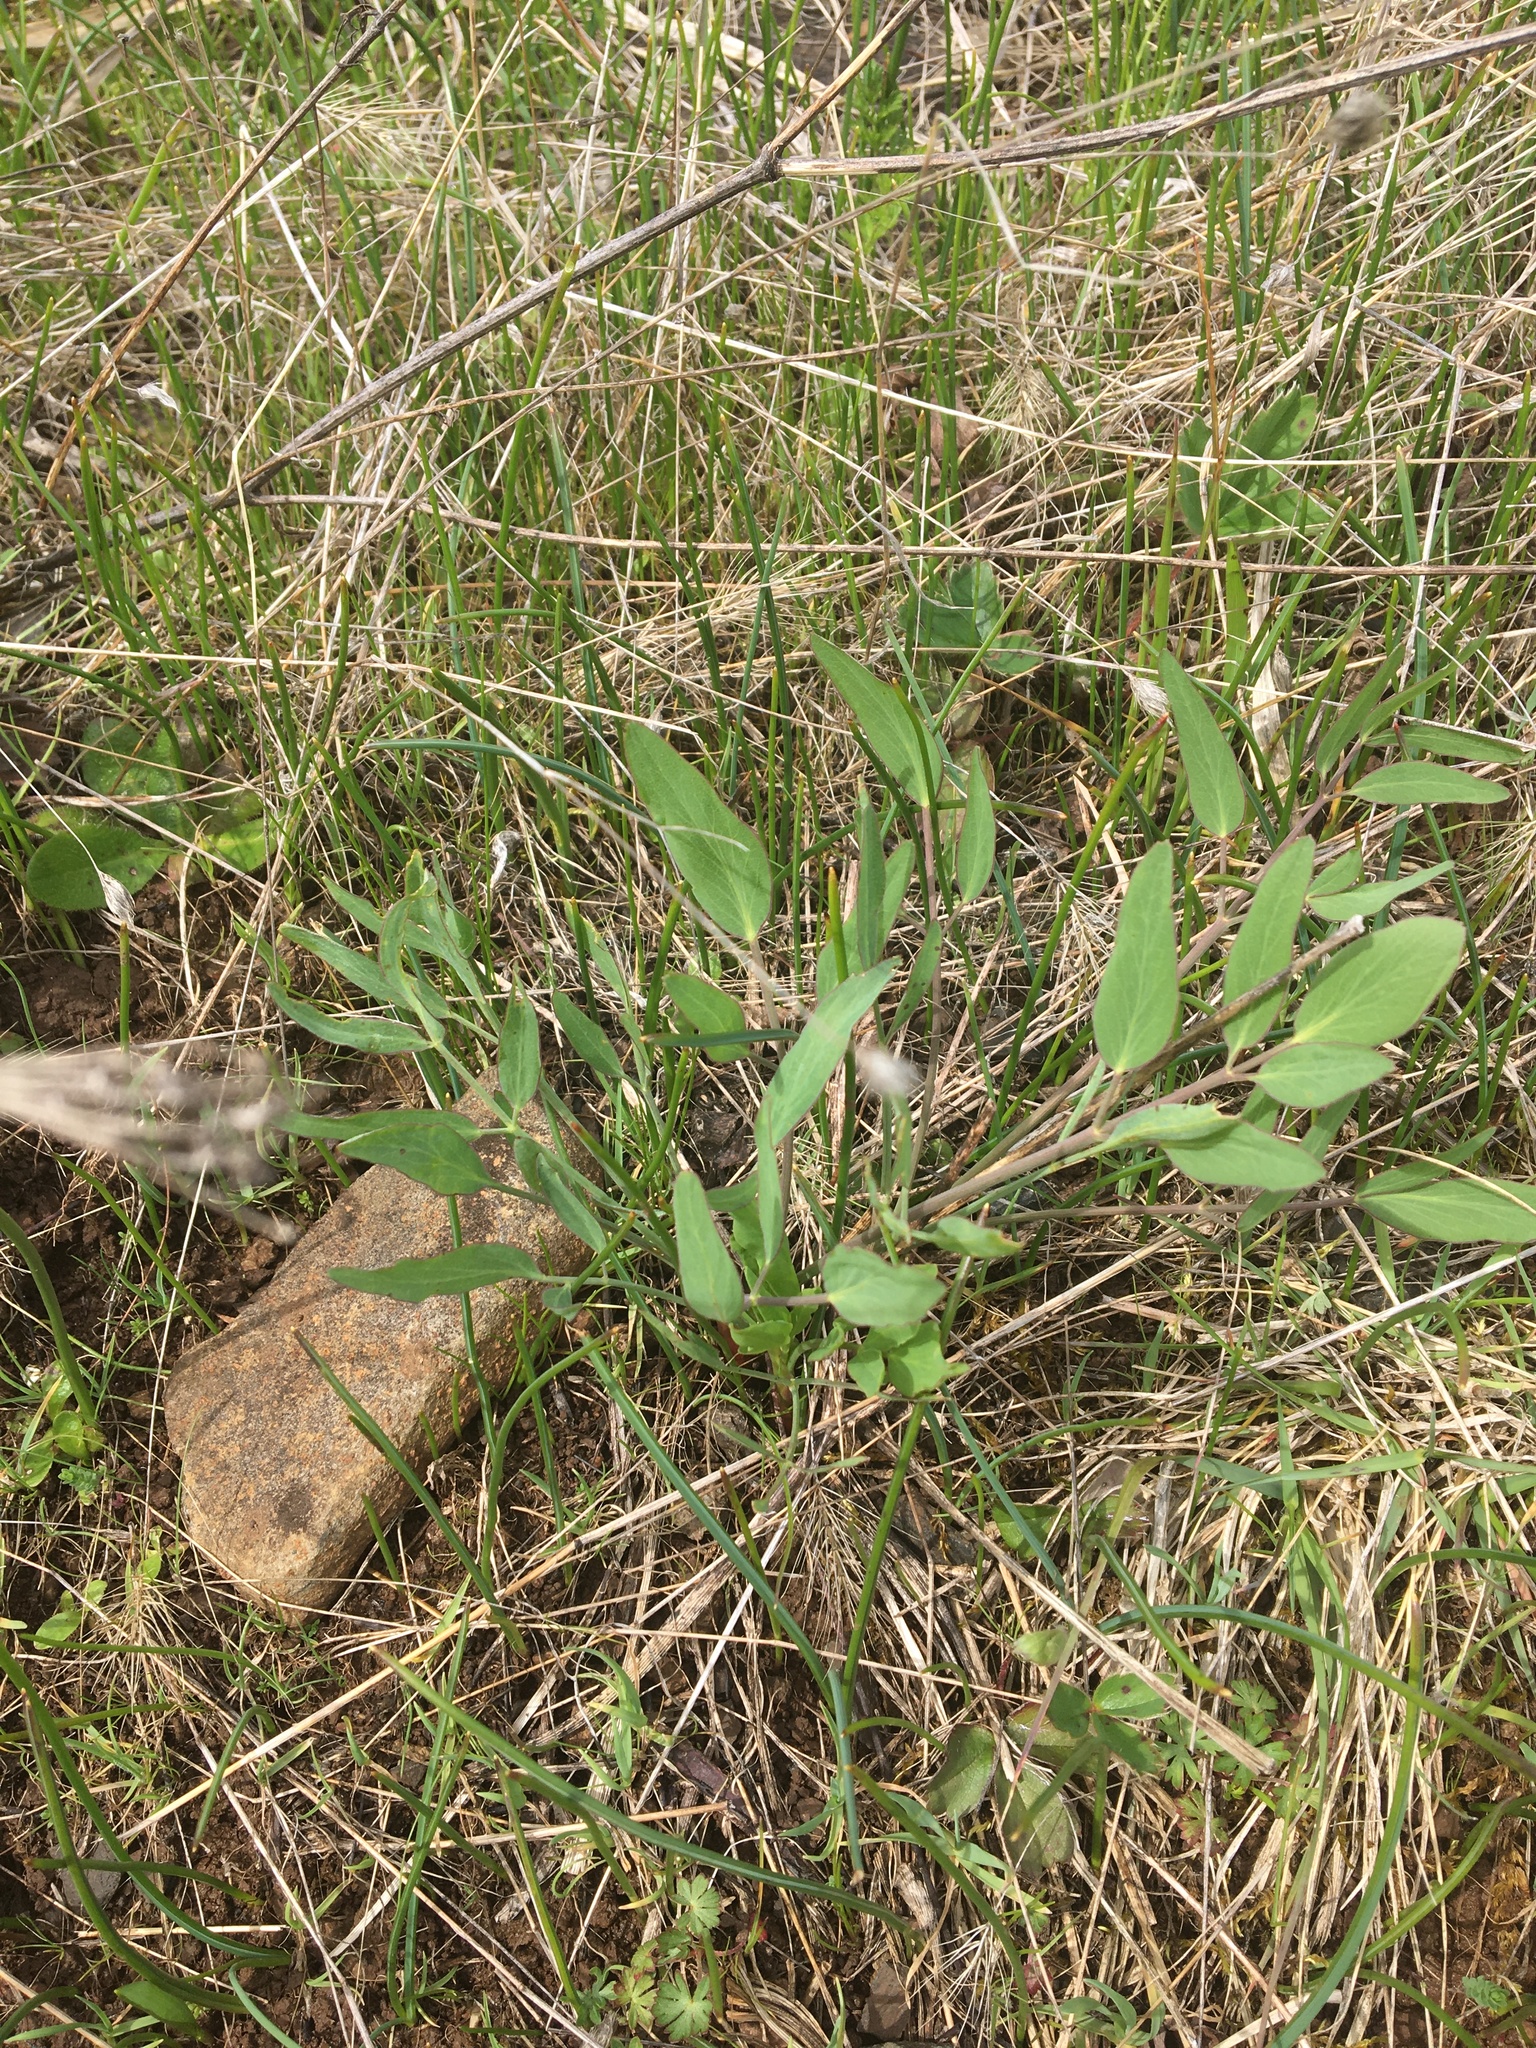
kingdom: Plantae
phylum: Tracheophyta
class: Magnoliopsida
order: Apiales
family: Apiaceae
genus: Lomatium
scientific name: Lomatium nudicaule
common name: Pestle lomatium
